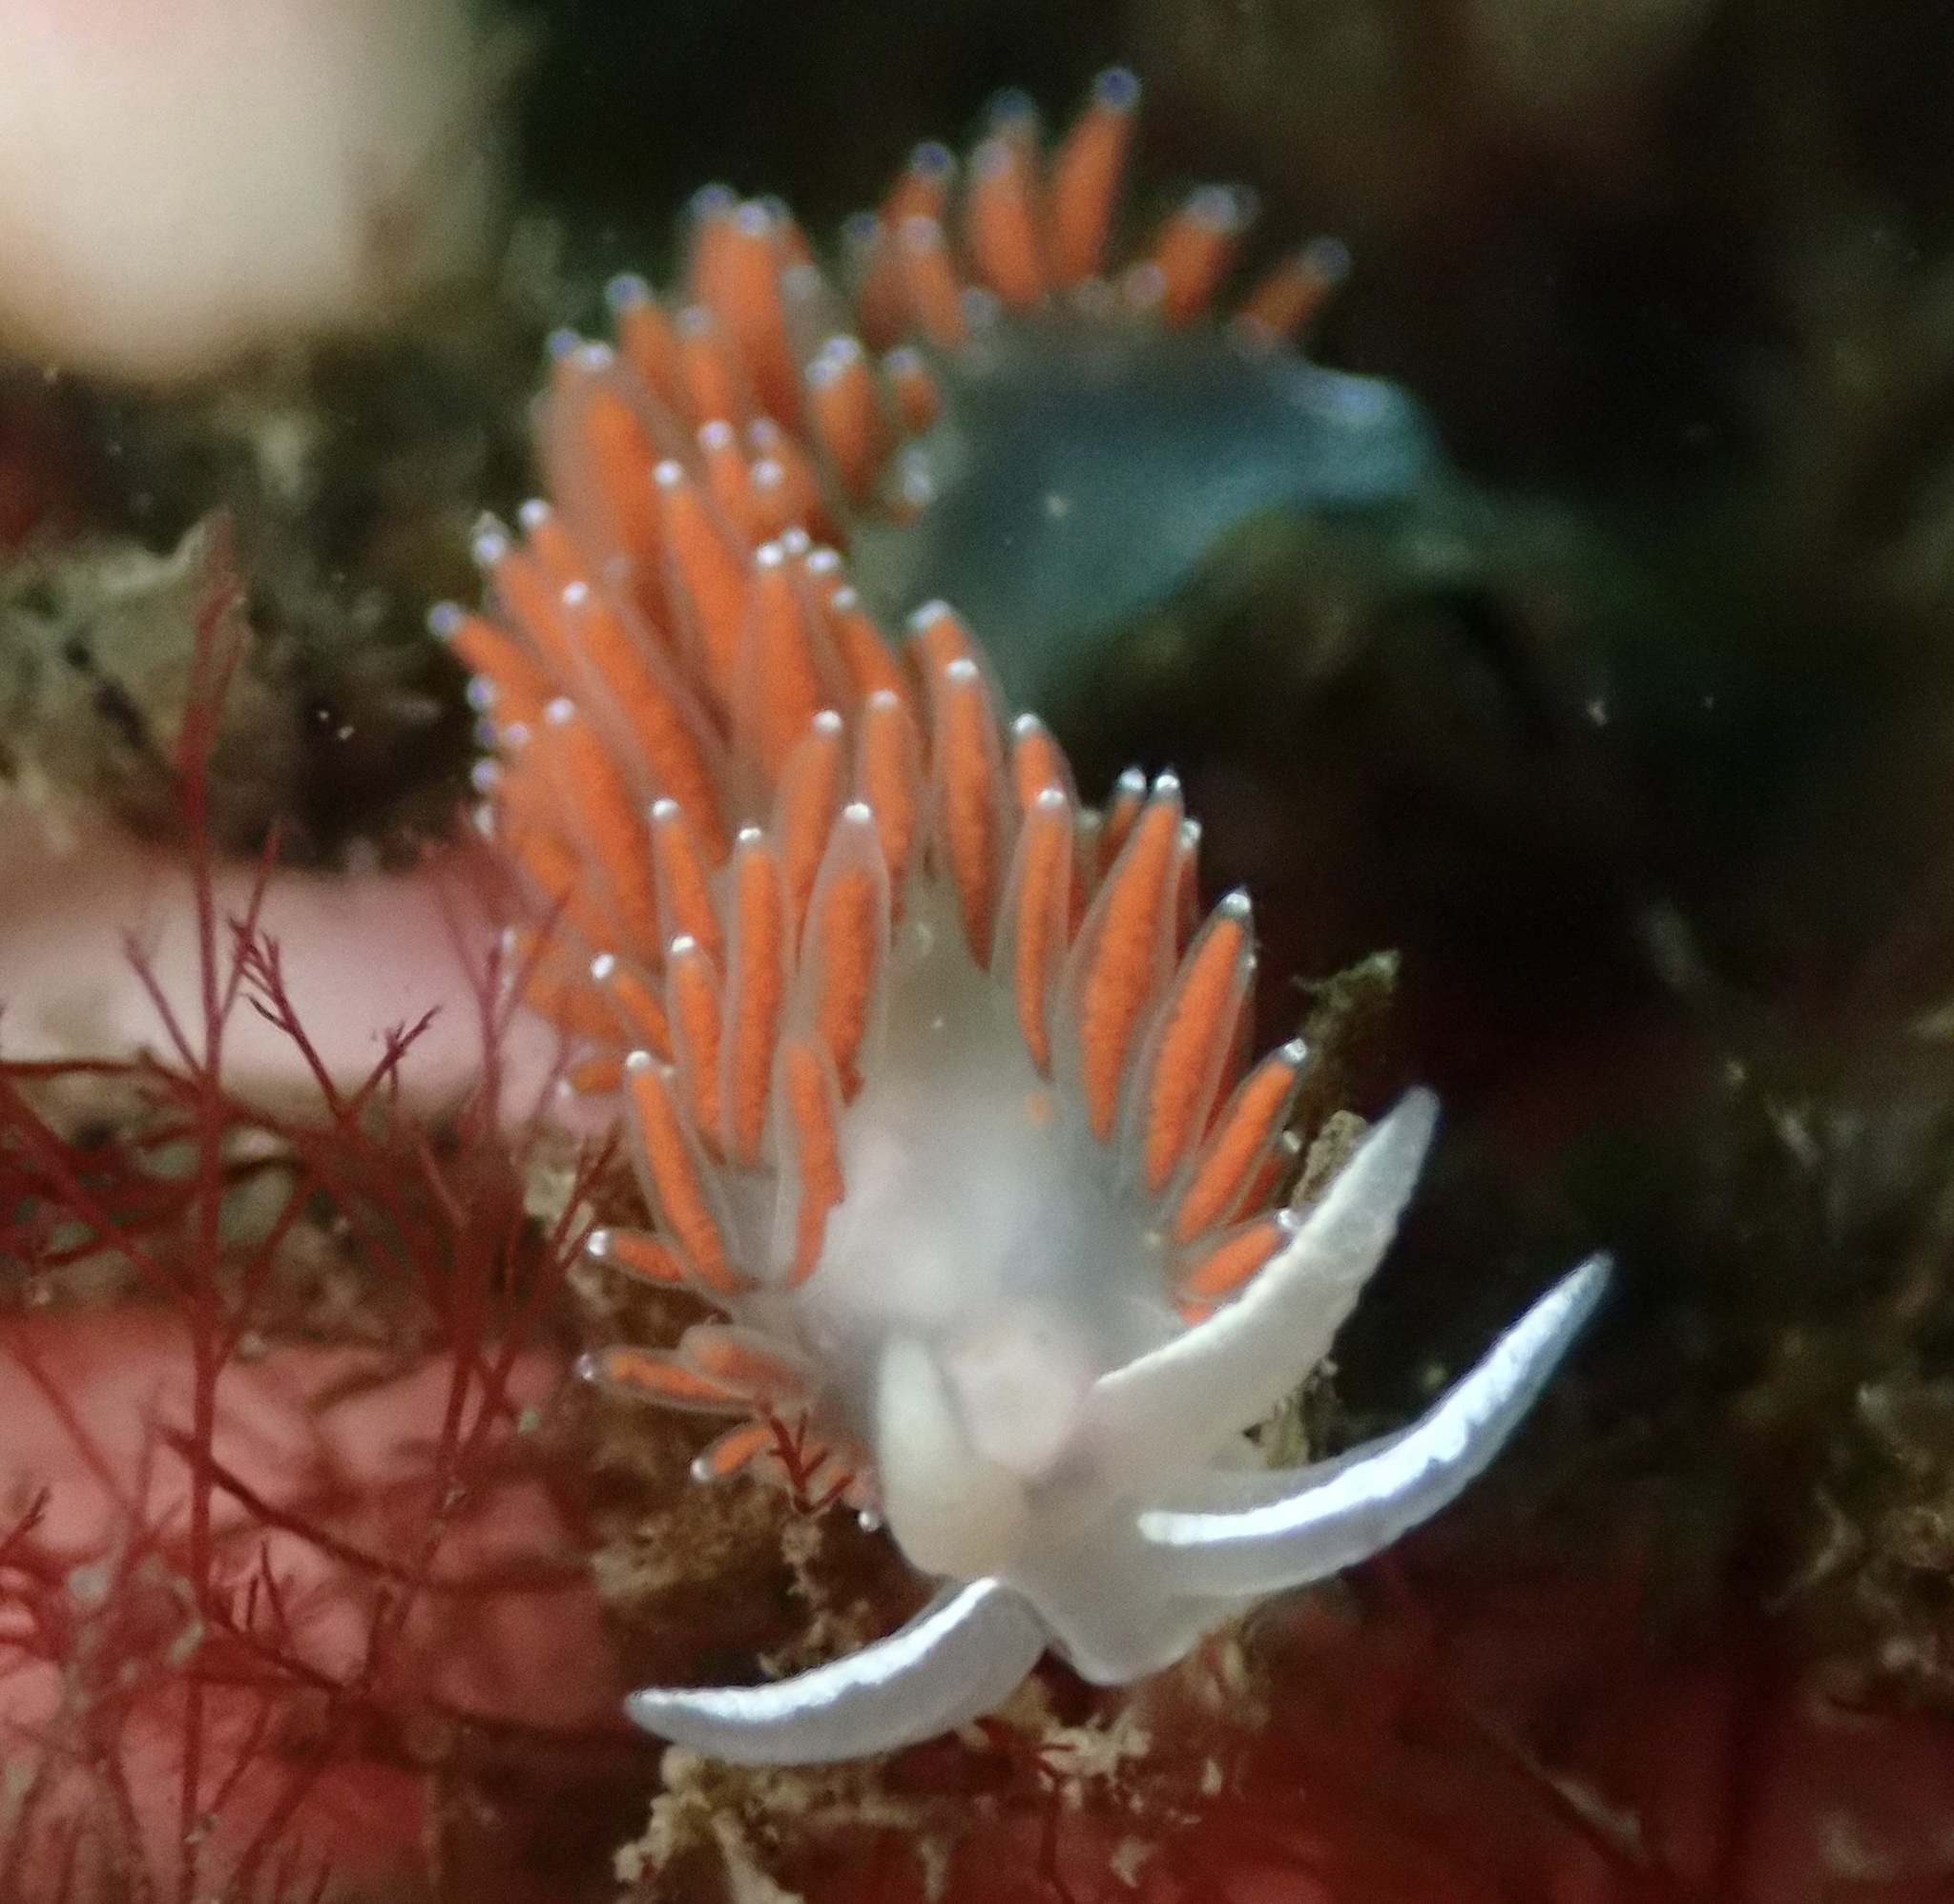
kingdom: Animalia
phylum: Mollusca
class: Gastropoda
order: Nudibranchia
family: Coryphellidae
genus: Coryphella
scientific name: Coryphella verrucosa
